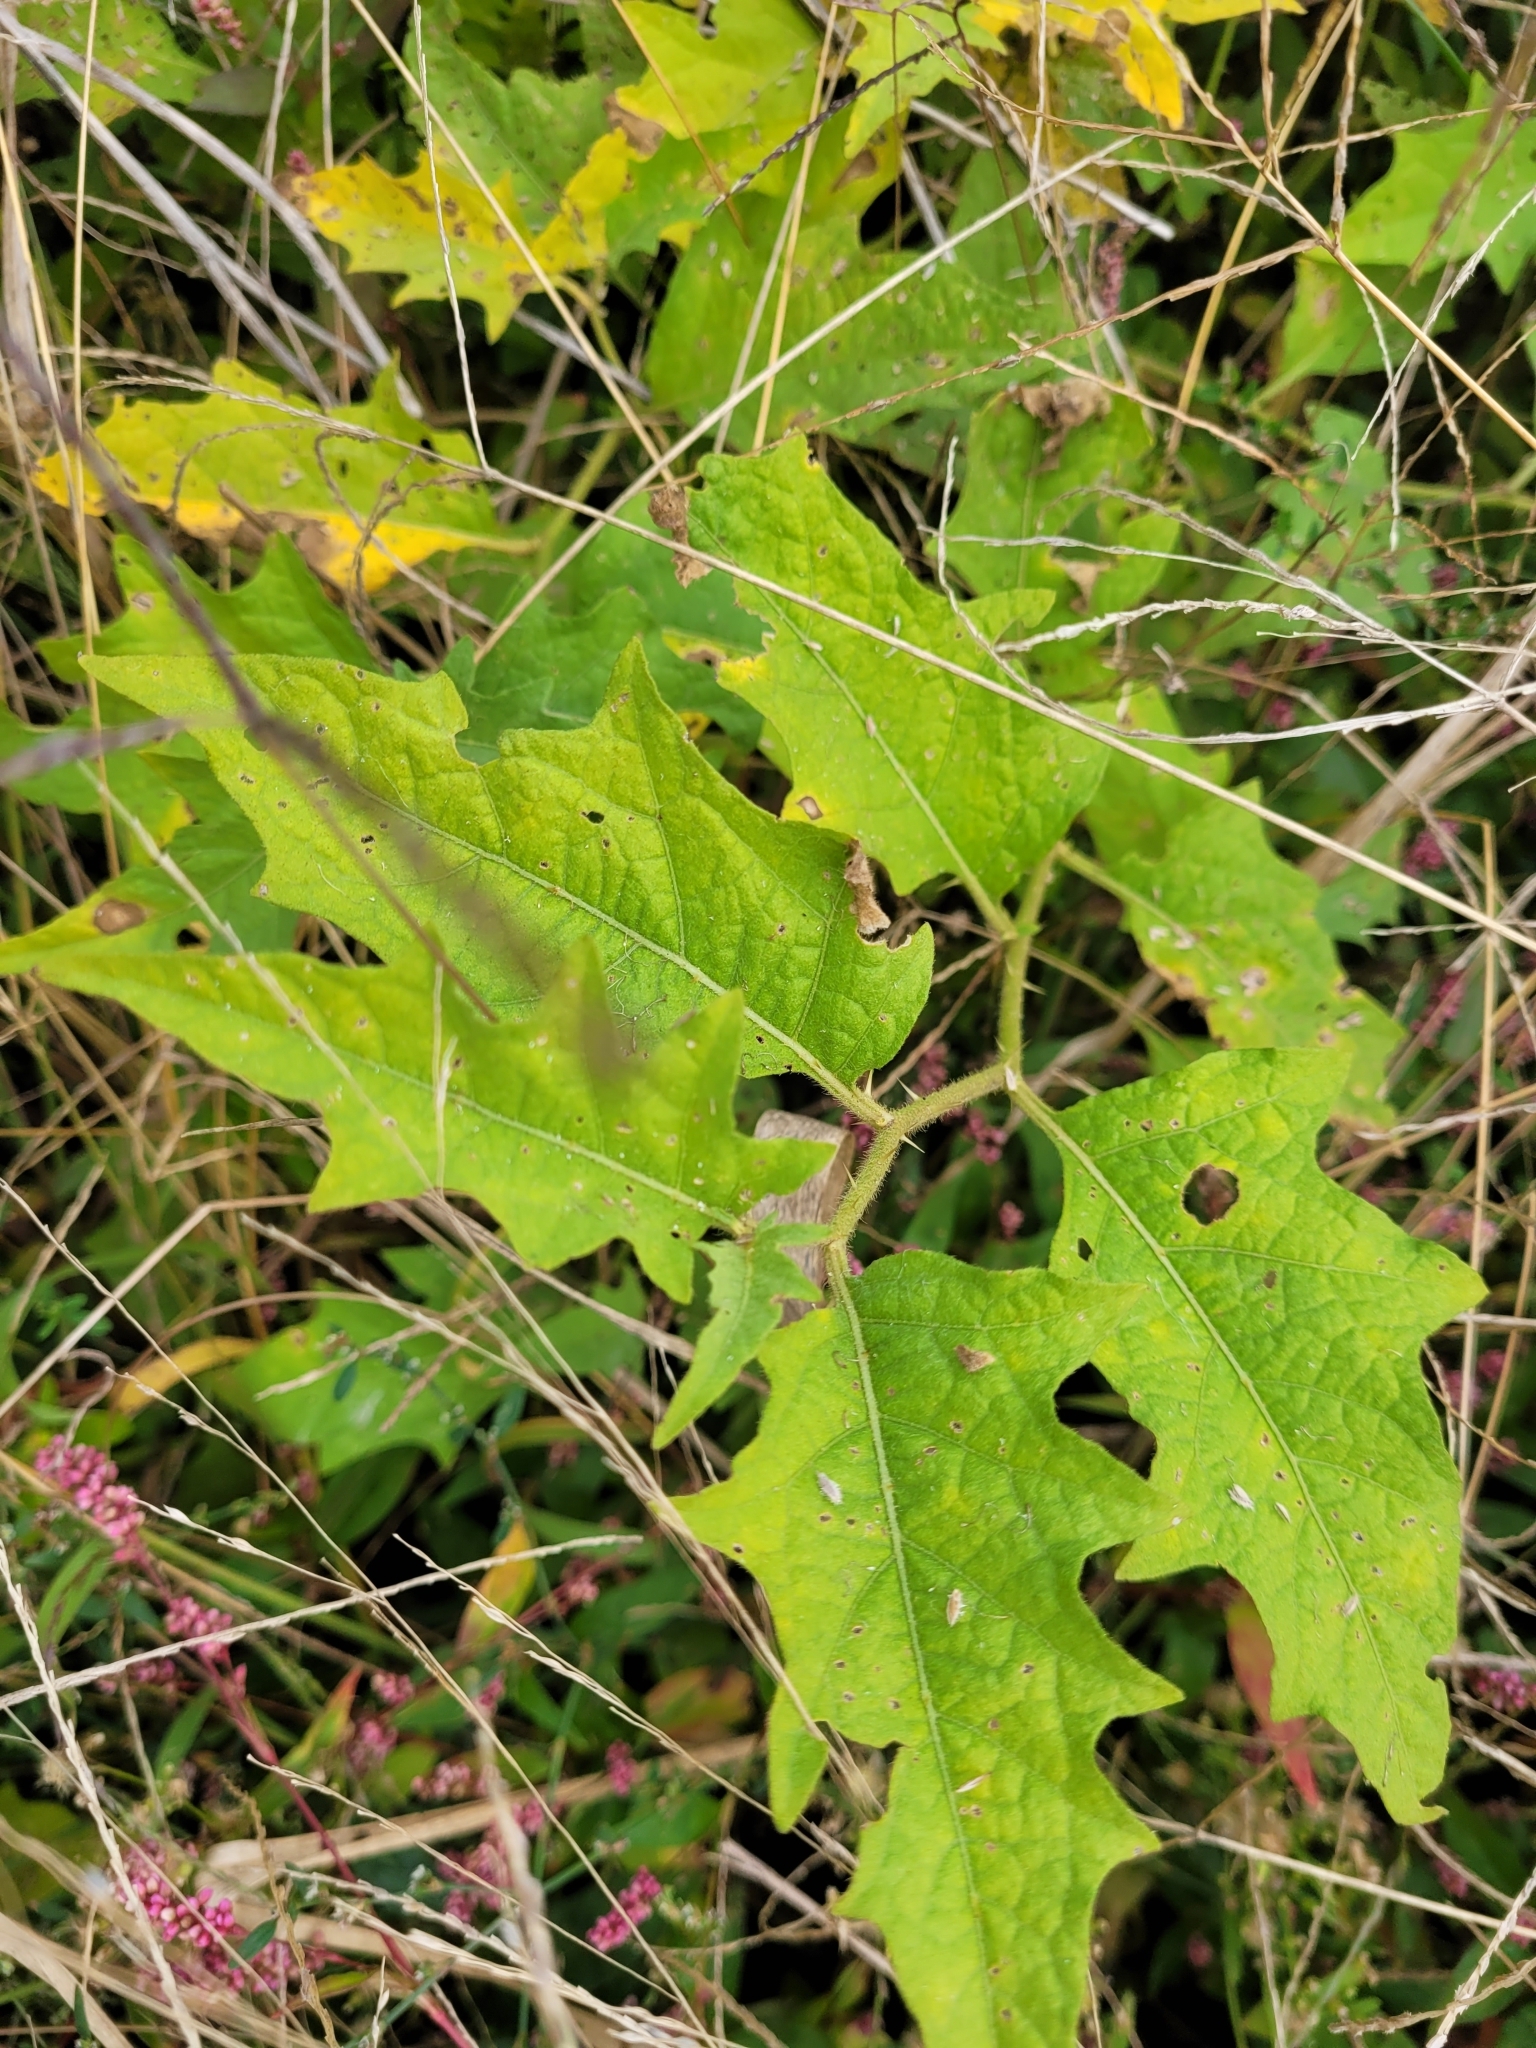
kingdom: Plantae
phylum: Tracheophyta
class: Magnoliopsida
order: Solanales
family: Solanaceae
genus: Solanum
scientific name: Solanum carolinense
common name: Horse-nettle
